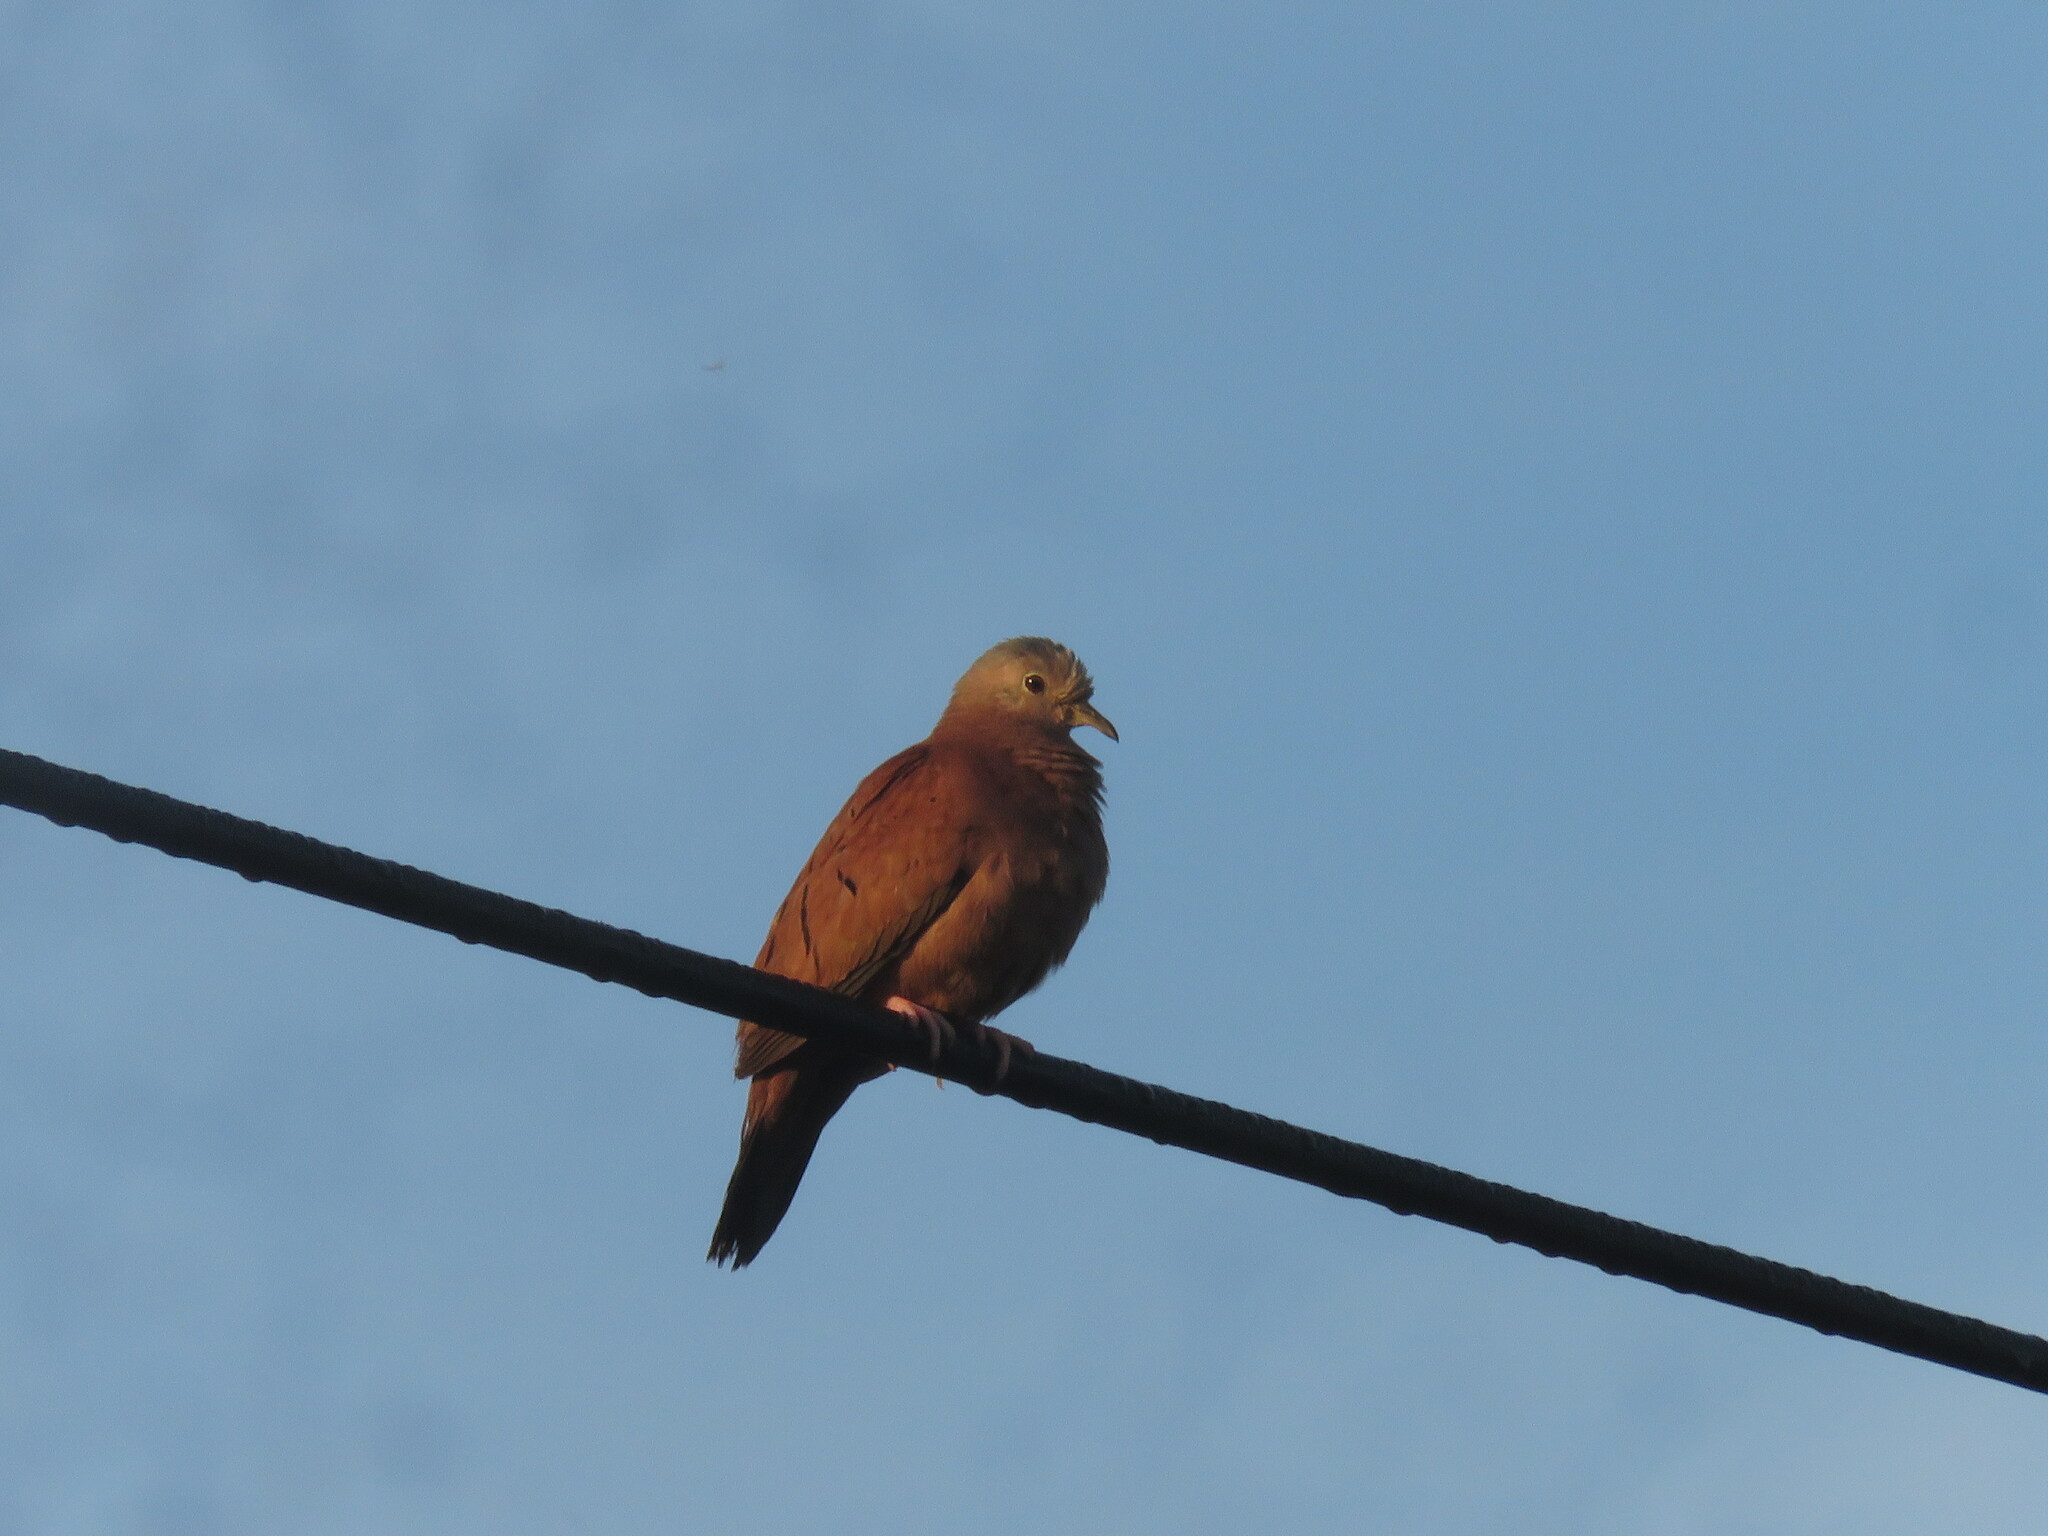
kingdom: Animalia
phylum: Chordata
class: Aves
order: Columbiformes
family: Columbidae
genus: Columbina
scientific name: Columbina talpacoti
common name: Ruddy ground dove
